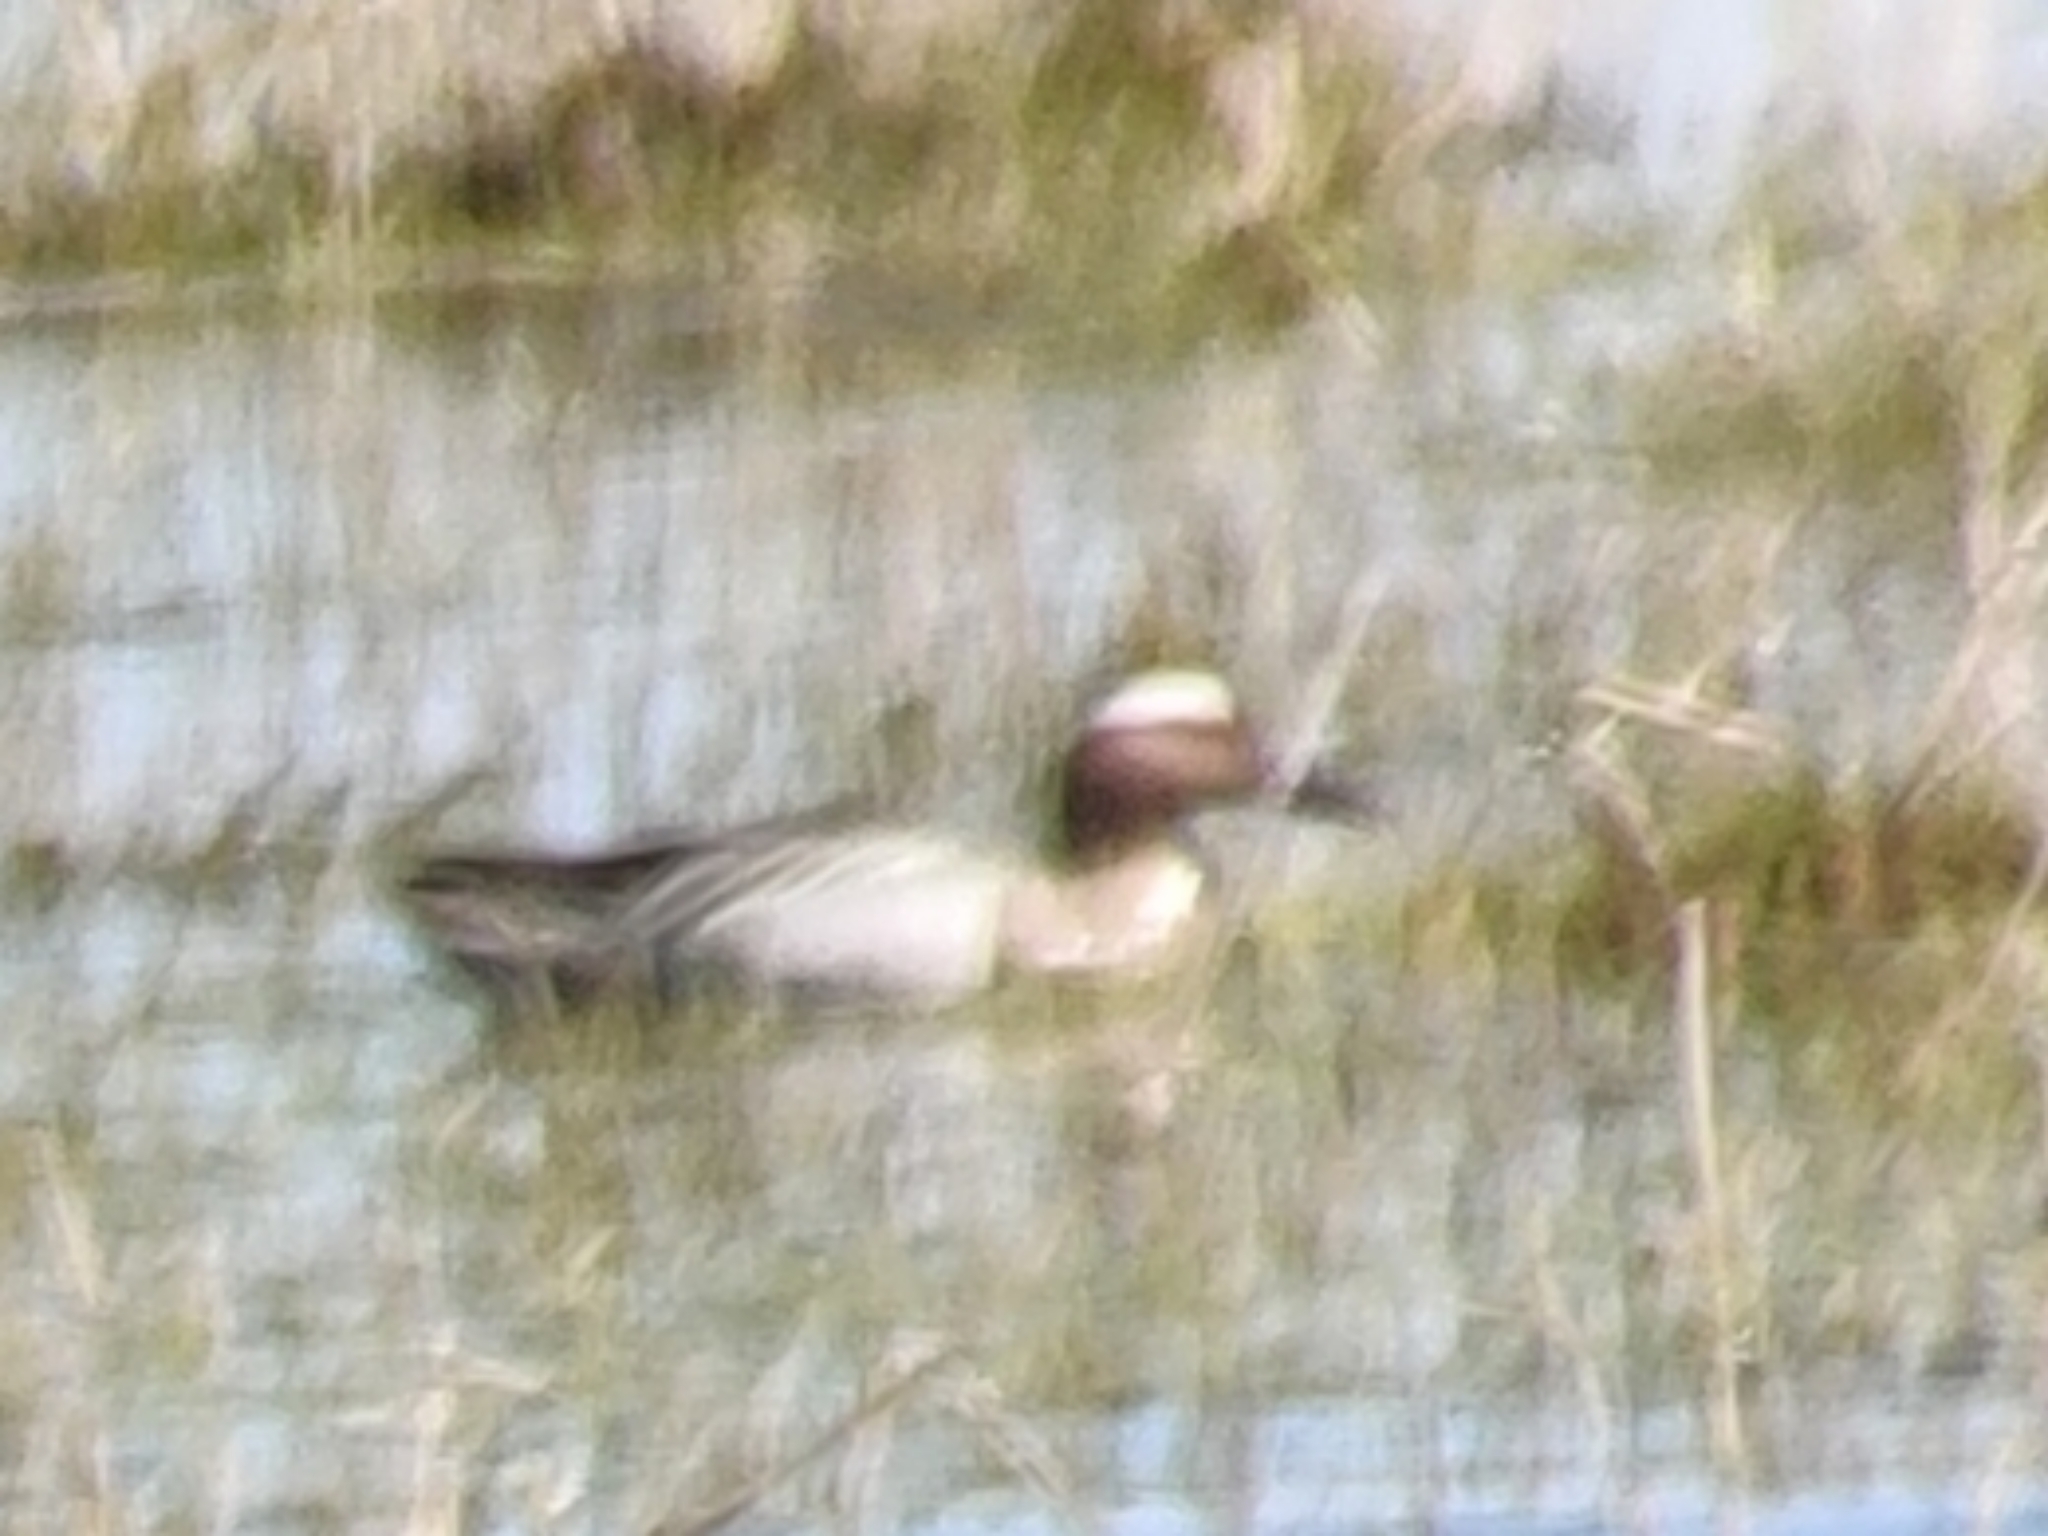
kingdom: Animalia
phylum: Chordata
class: Aves
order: Anseriformes
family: Anatidae
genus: Spatula
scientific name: Spatula querquedula
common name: Garganey
